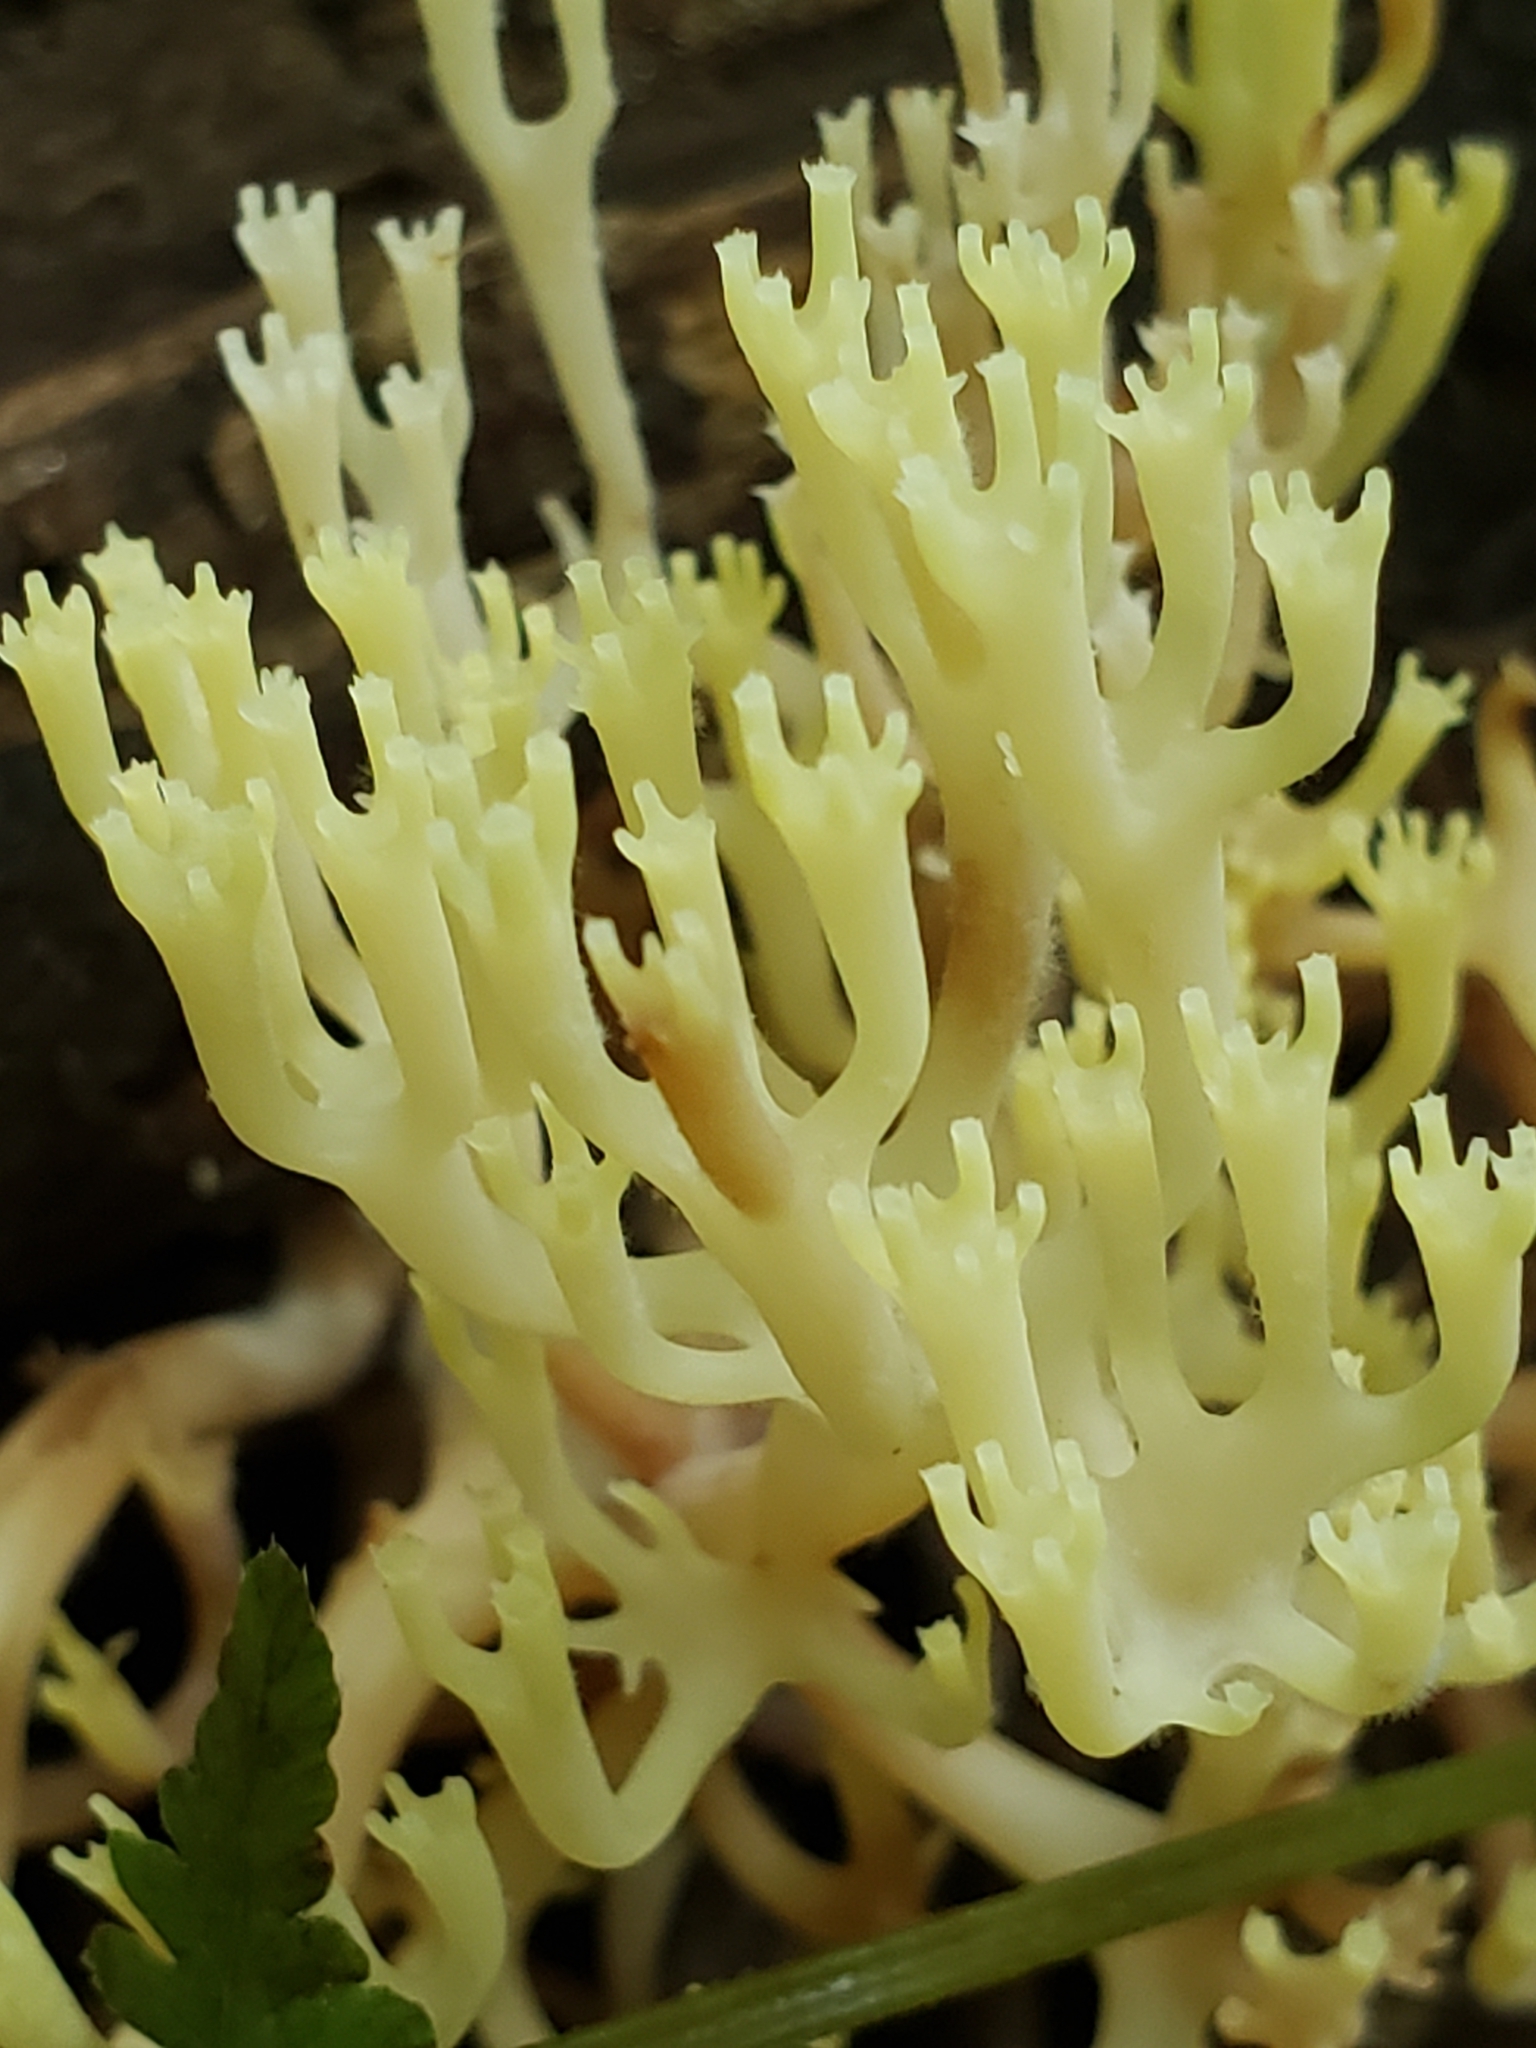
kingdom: Fungi
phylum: Basidiomycota
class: Agaricomycetes
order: Russulales
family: Auriscalpiaceae
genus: Artomyces
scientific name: Artomyces pyxidatus
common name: Crown-tipped coral fungus
